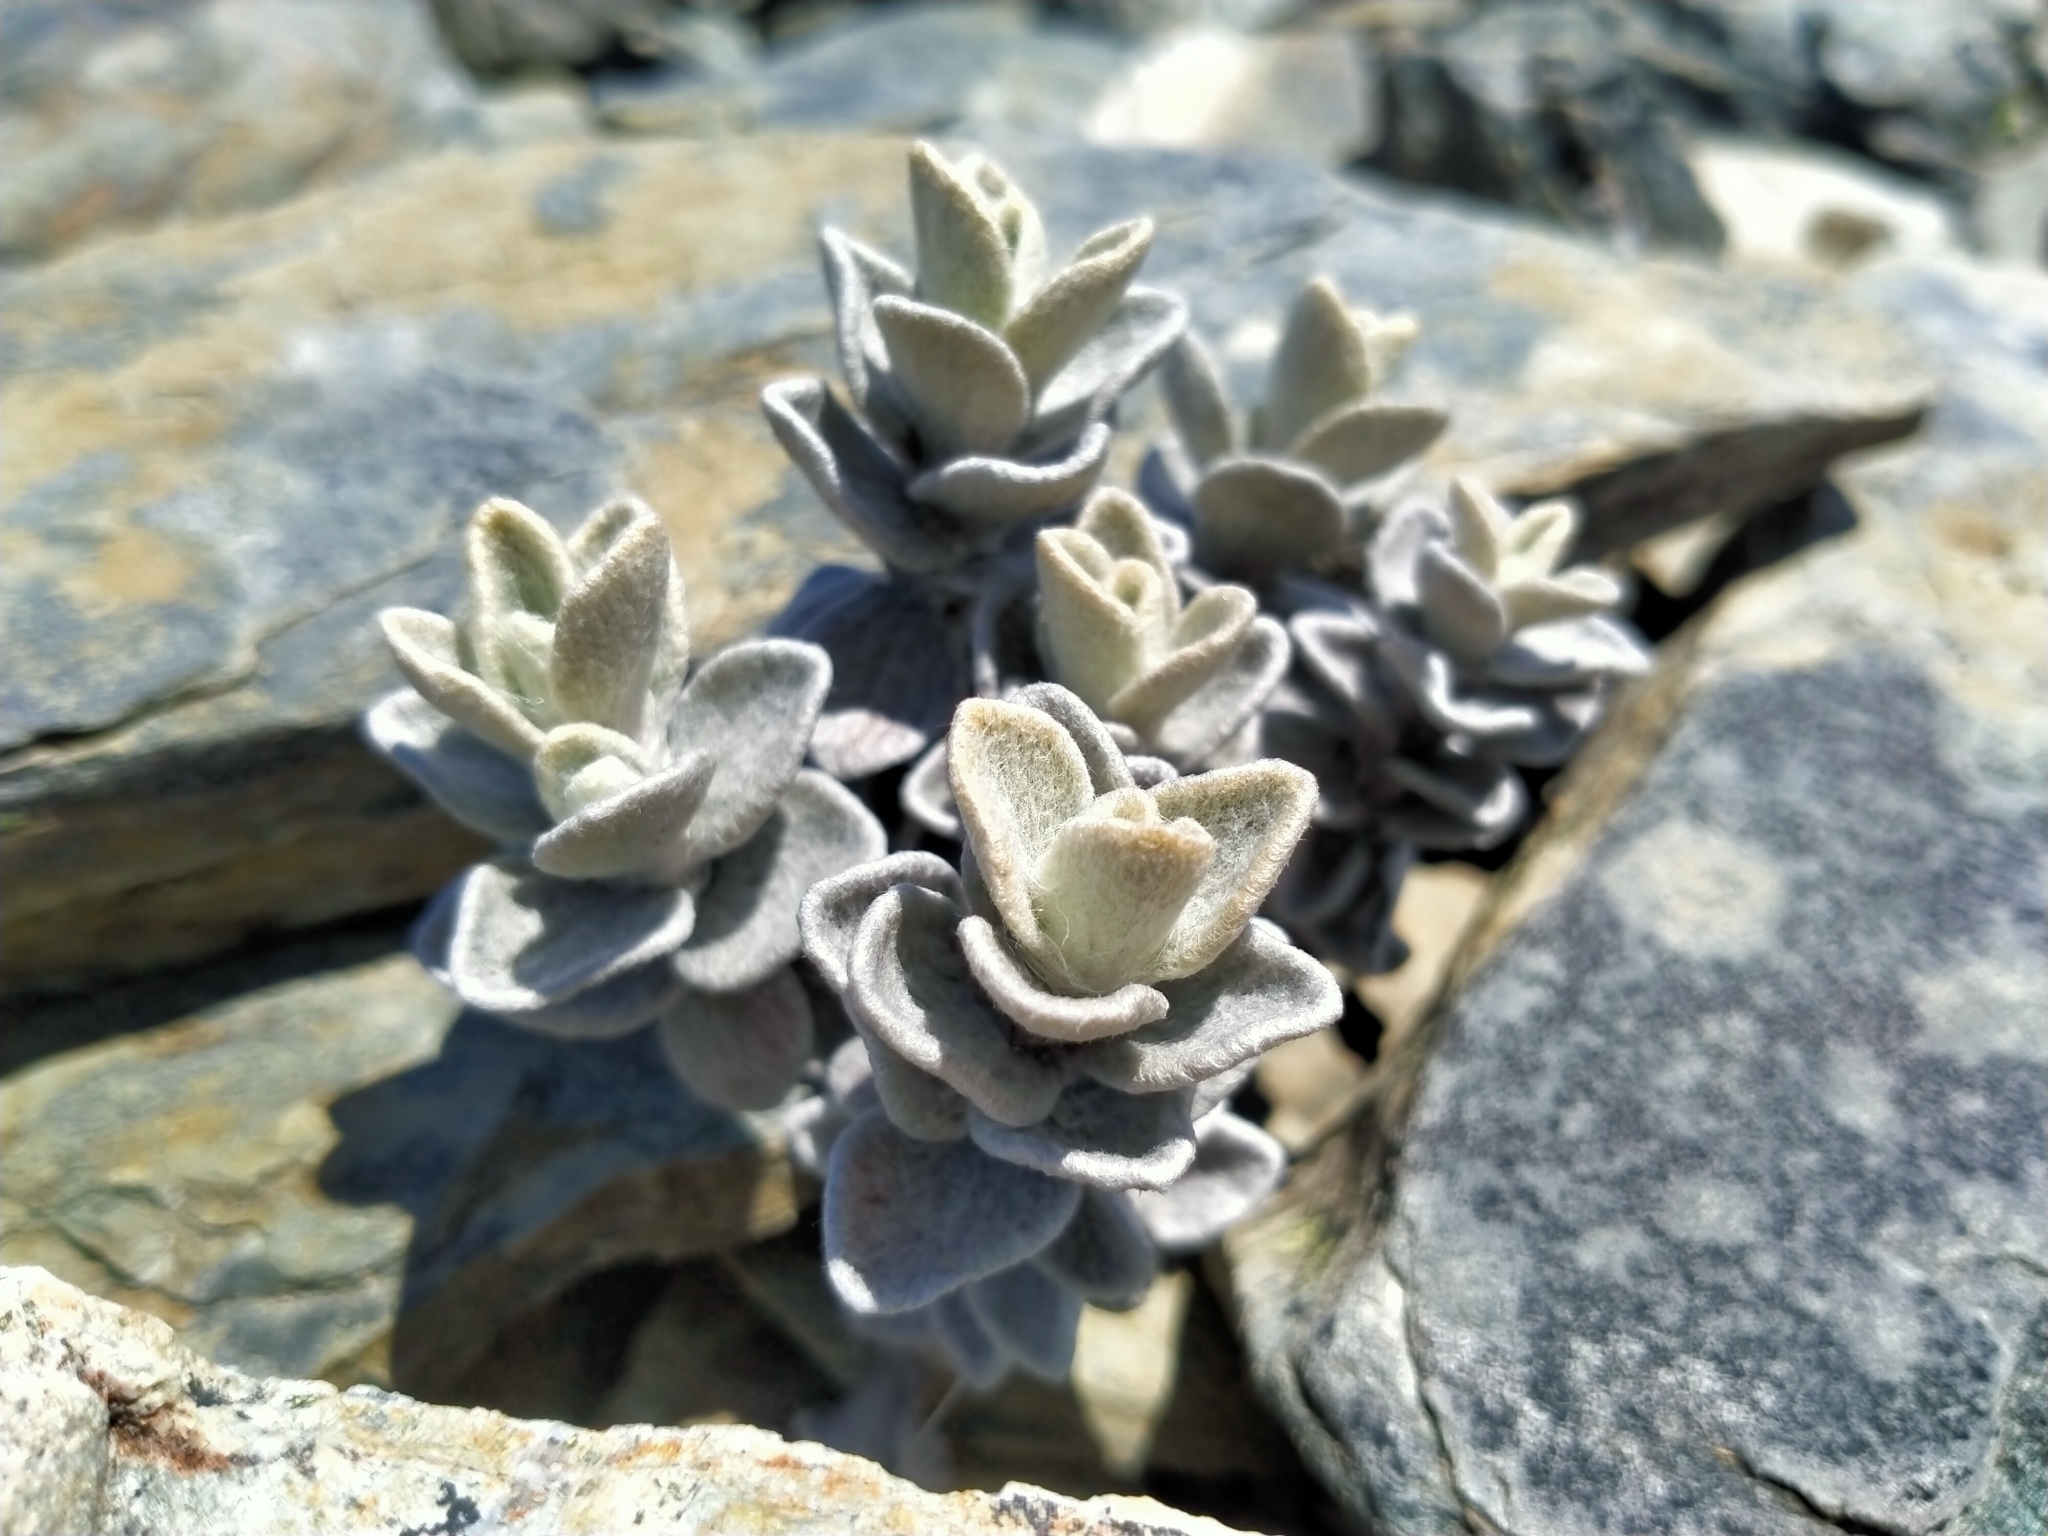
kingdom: Plantae
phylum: Tracheophyta
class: Magnoliopsida
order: Asterales
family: Asteraceae
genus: Haastia
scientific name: Haastia sinclairii
